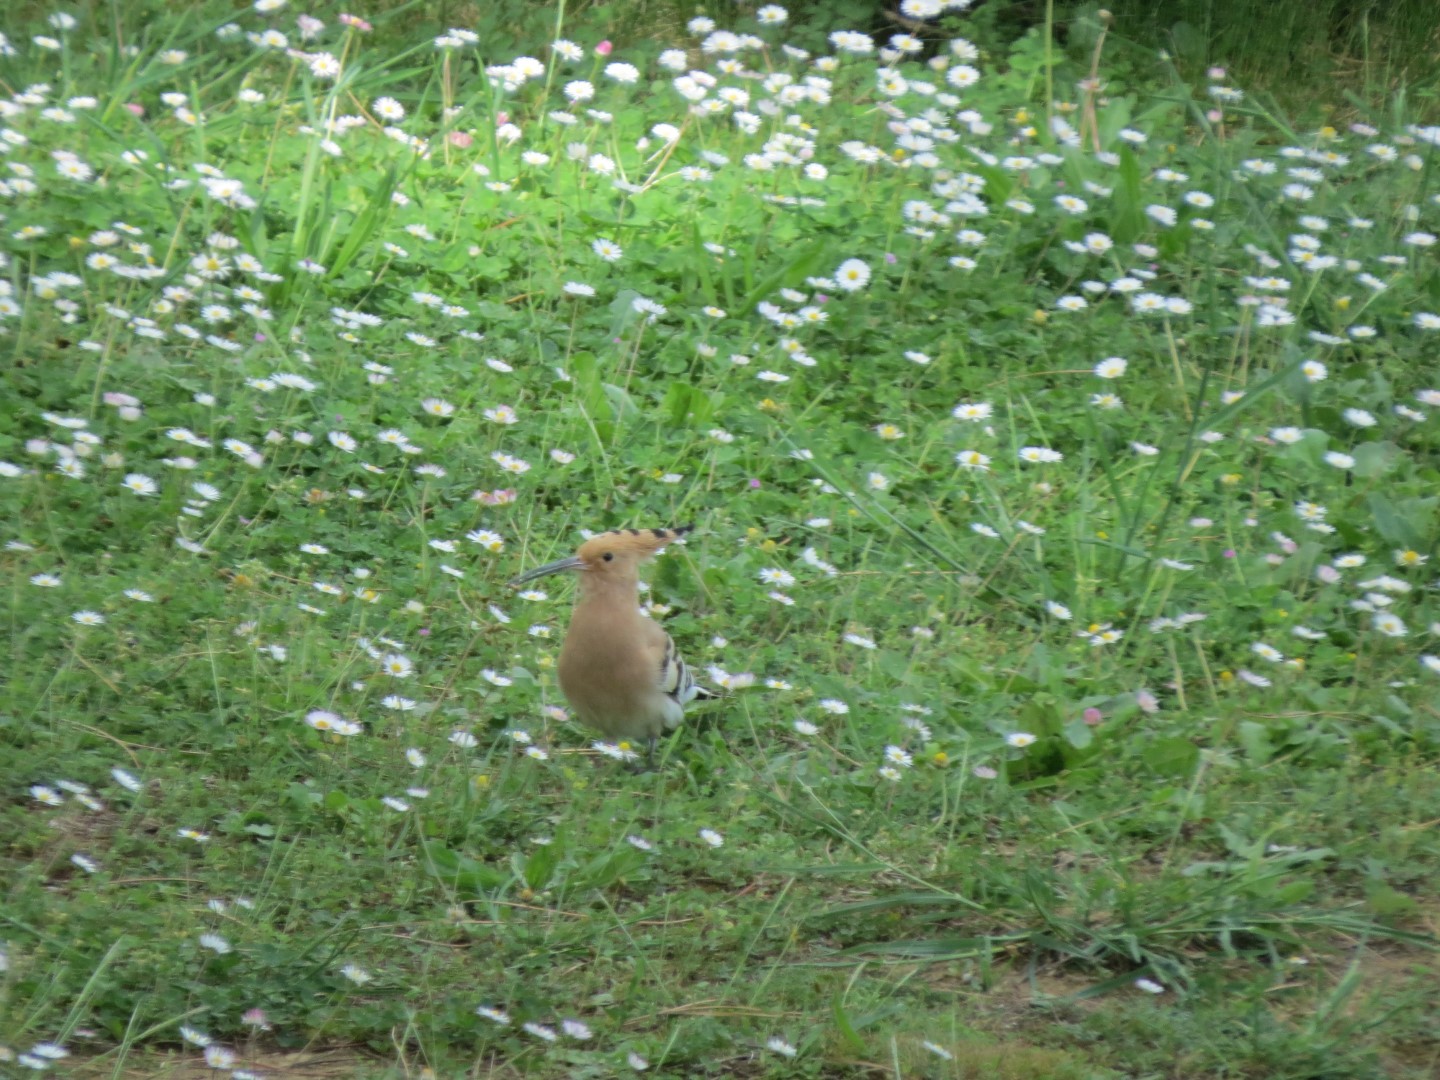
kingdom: Animalia
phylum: Chordata
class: Aves
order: Bucerotiformes
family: Upupidae
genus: Upupa
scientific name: Upupa epops
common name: Eurasian hoopoe
